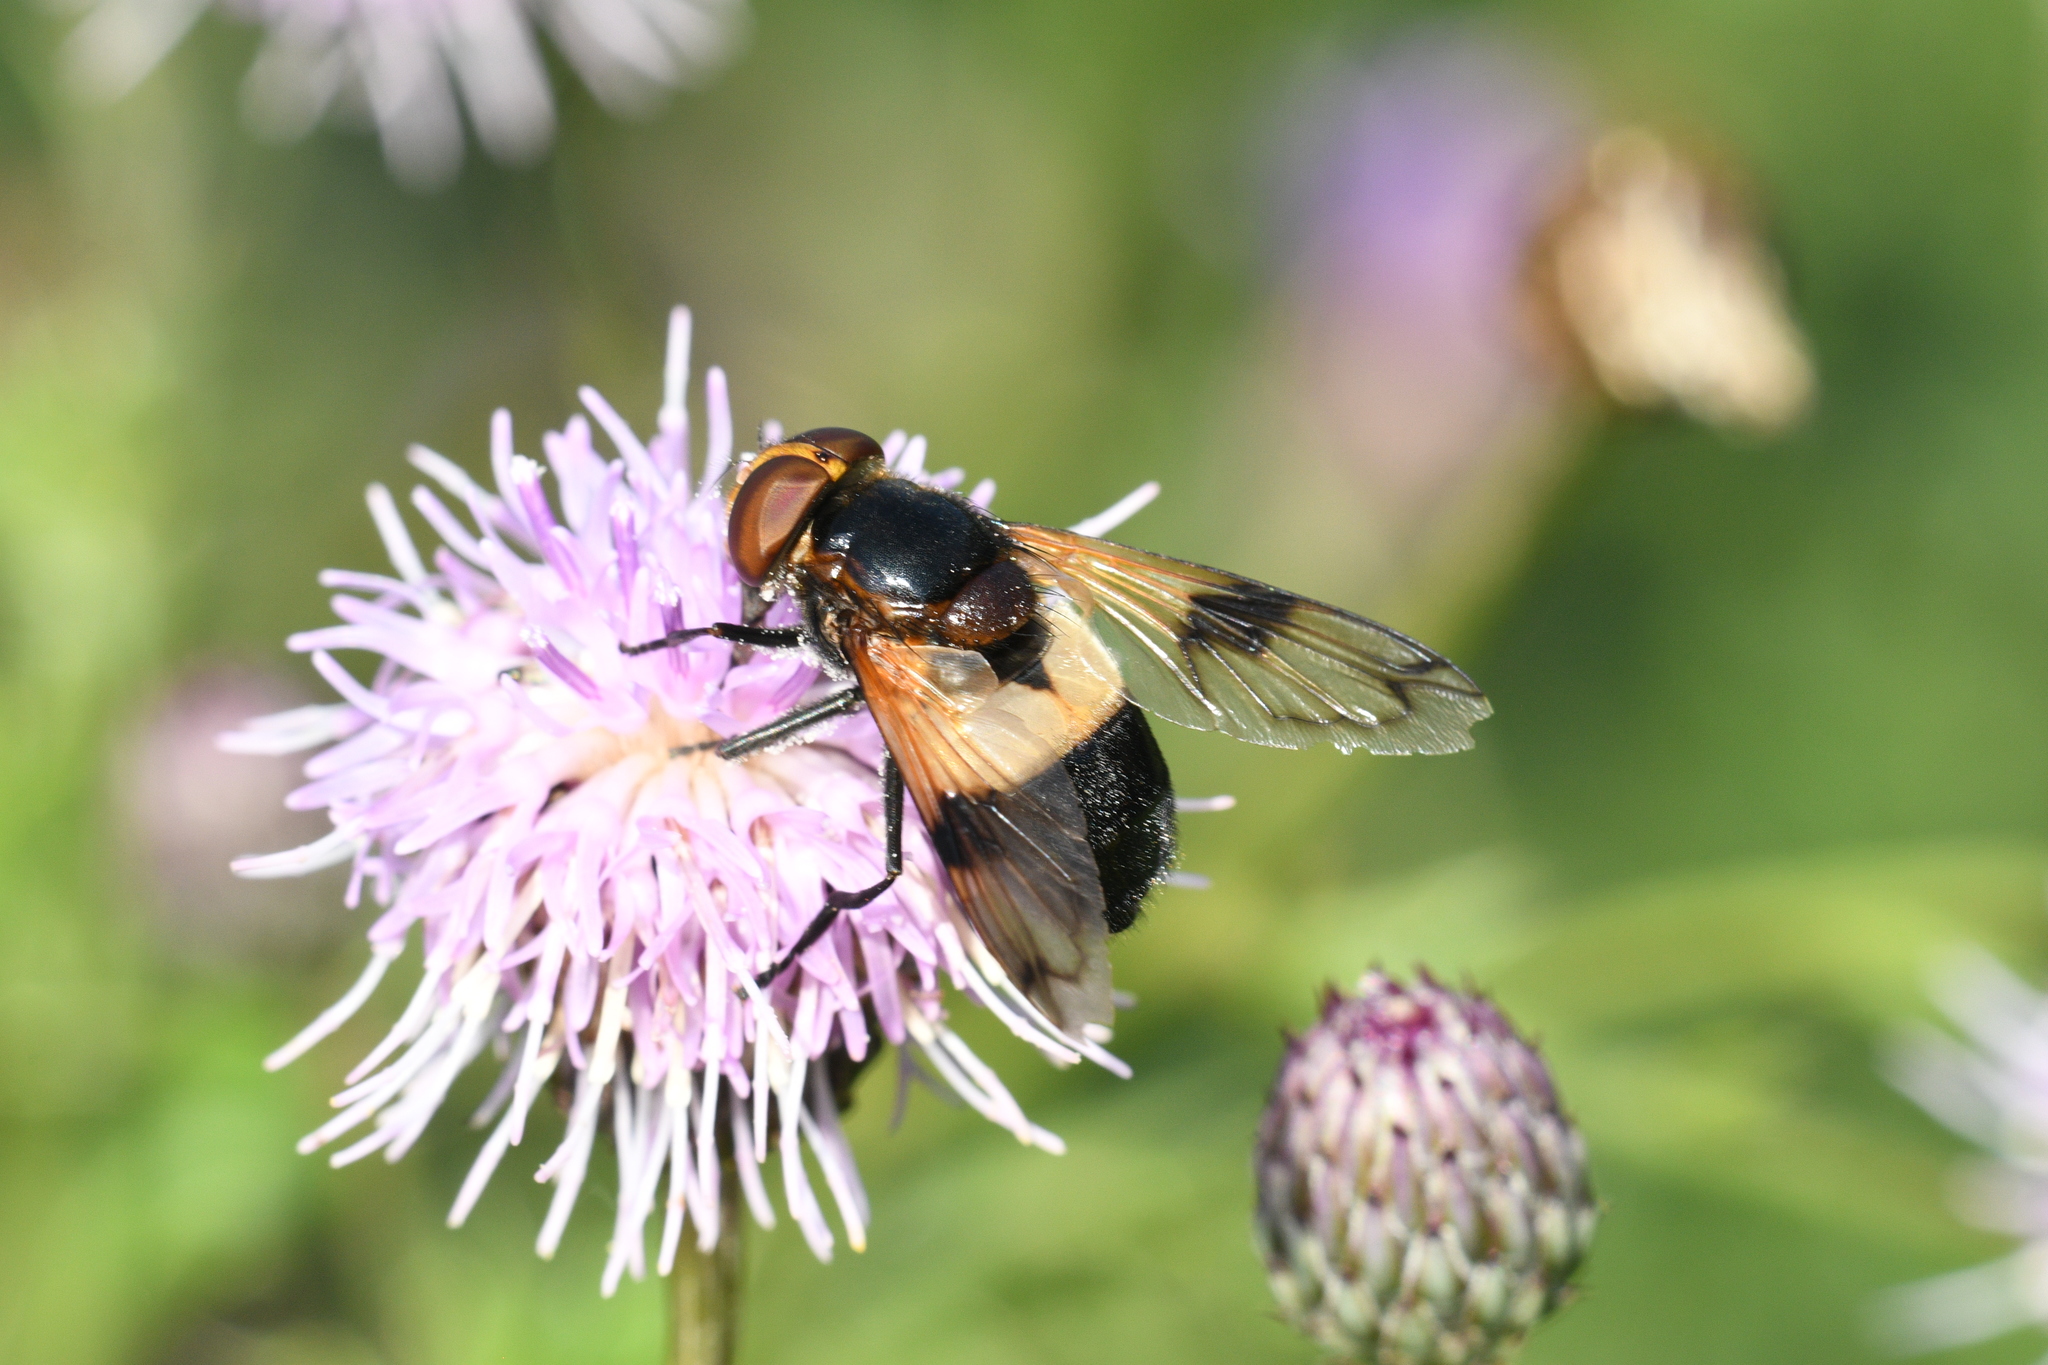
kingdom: Animalia
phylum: Arthropoda
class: Insecta
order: Diptera
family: Syrphidae
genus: Volucella
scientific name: Volucella pellucens
